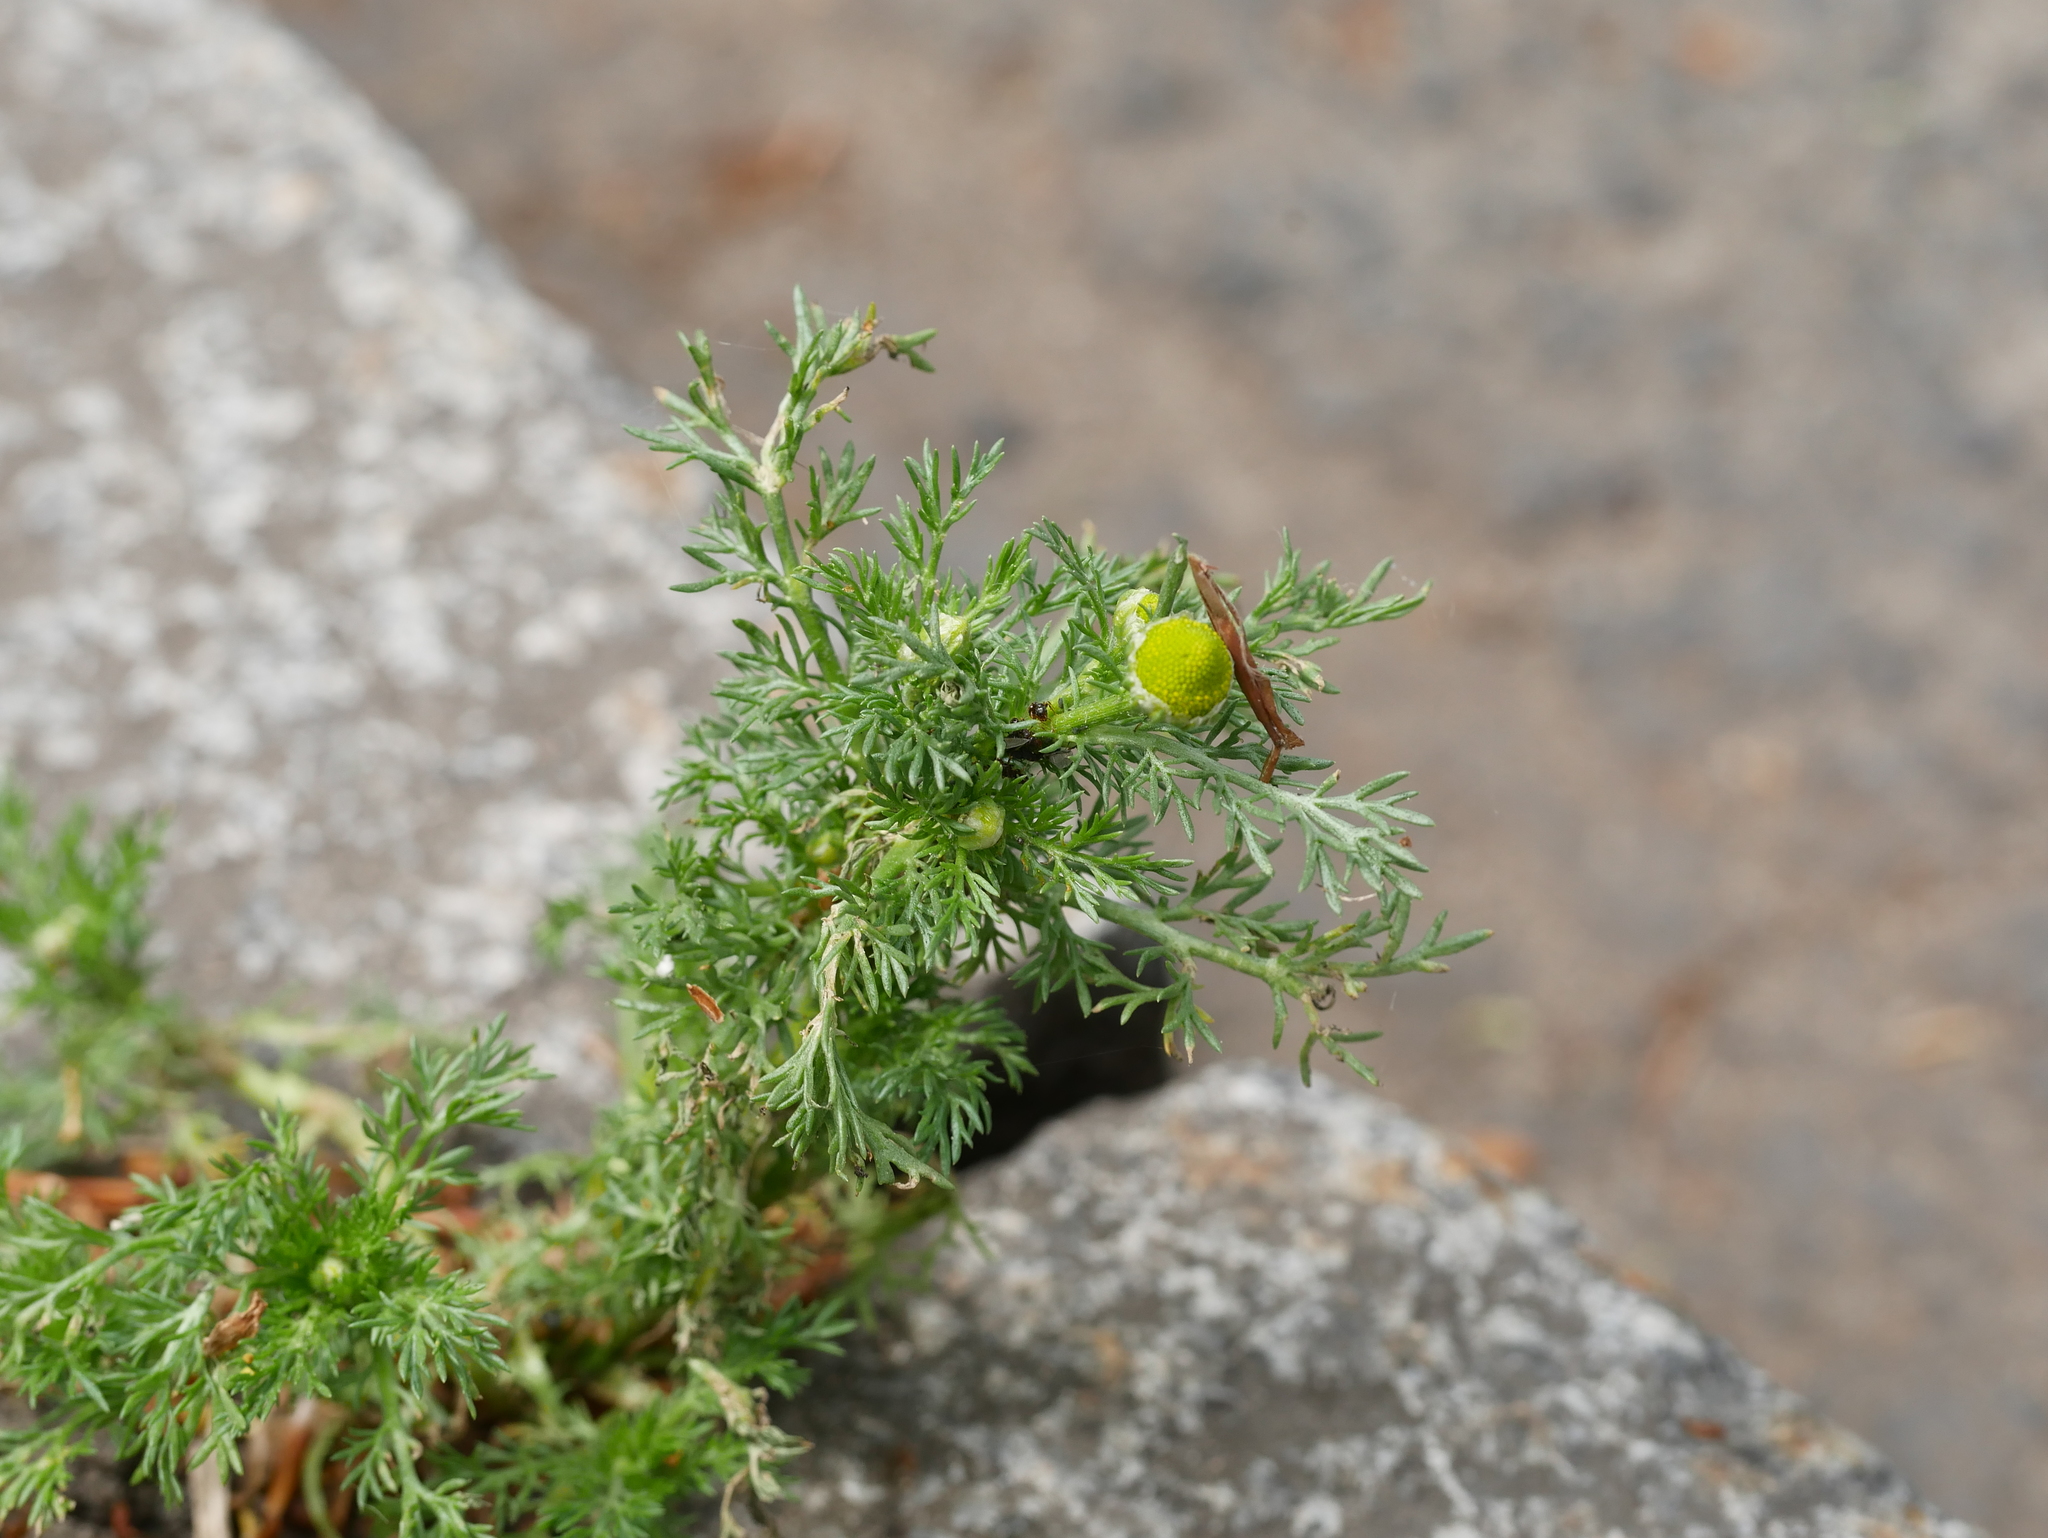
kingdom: Plantae
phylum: Tracheophyta
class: Magnoliopsida
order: Asterales
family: Asteraceae
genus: Matricaria
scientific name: Matricaria discoidea
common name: Disc mayweed
